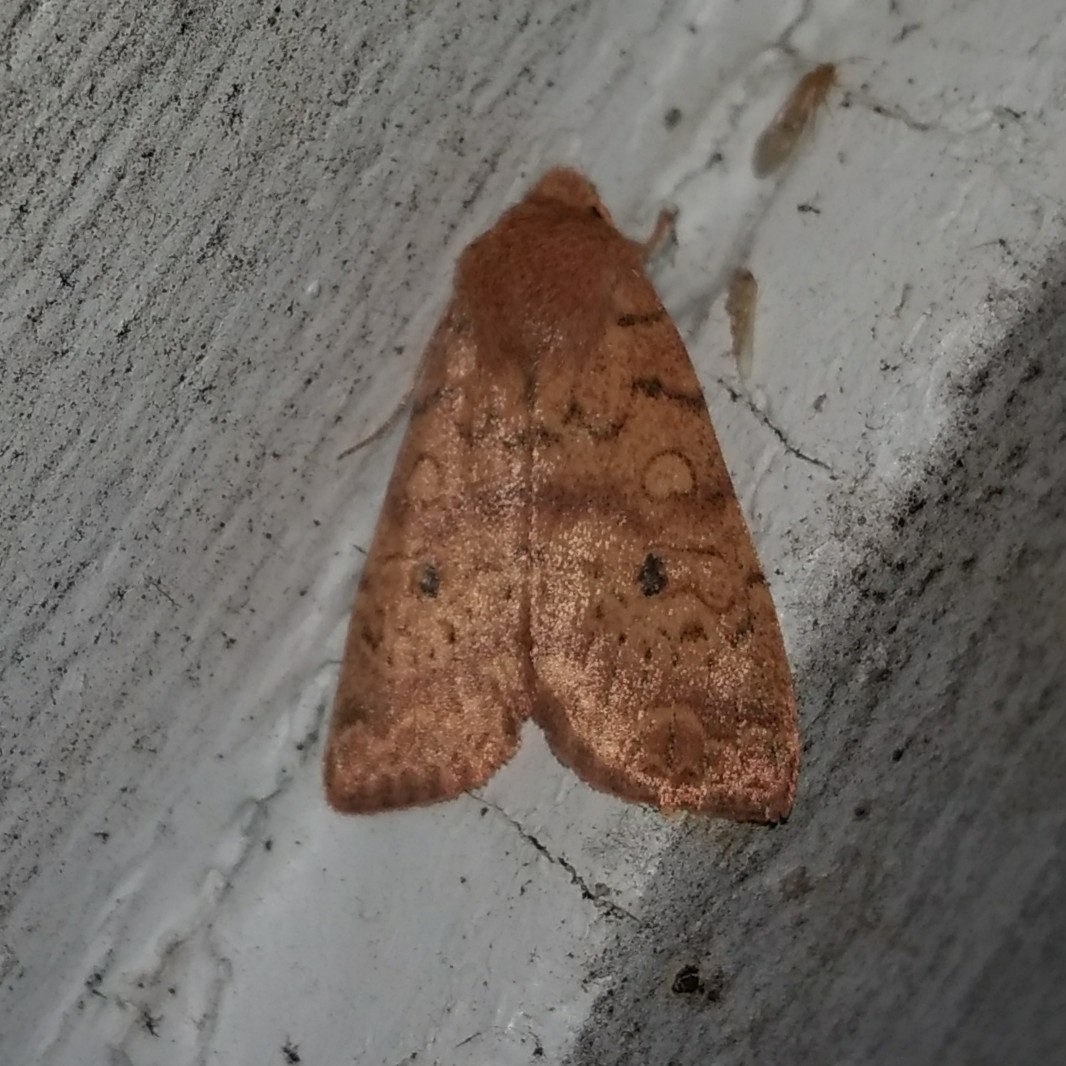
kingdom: Animalia
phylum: Arthropoda
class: Insecta
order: Lepidoptera
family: Noctuidae
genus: Agrochola
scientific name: Agrochola bicolorago
